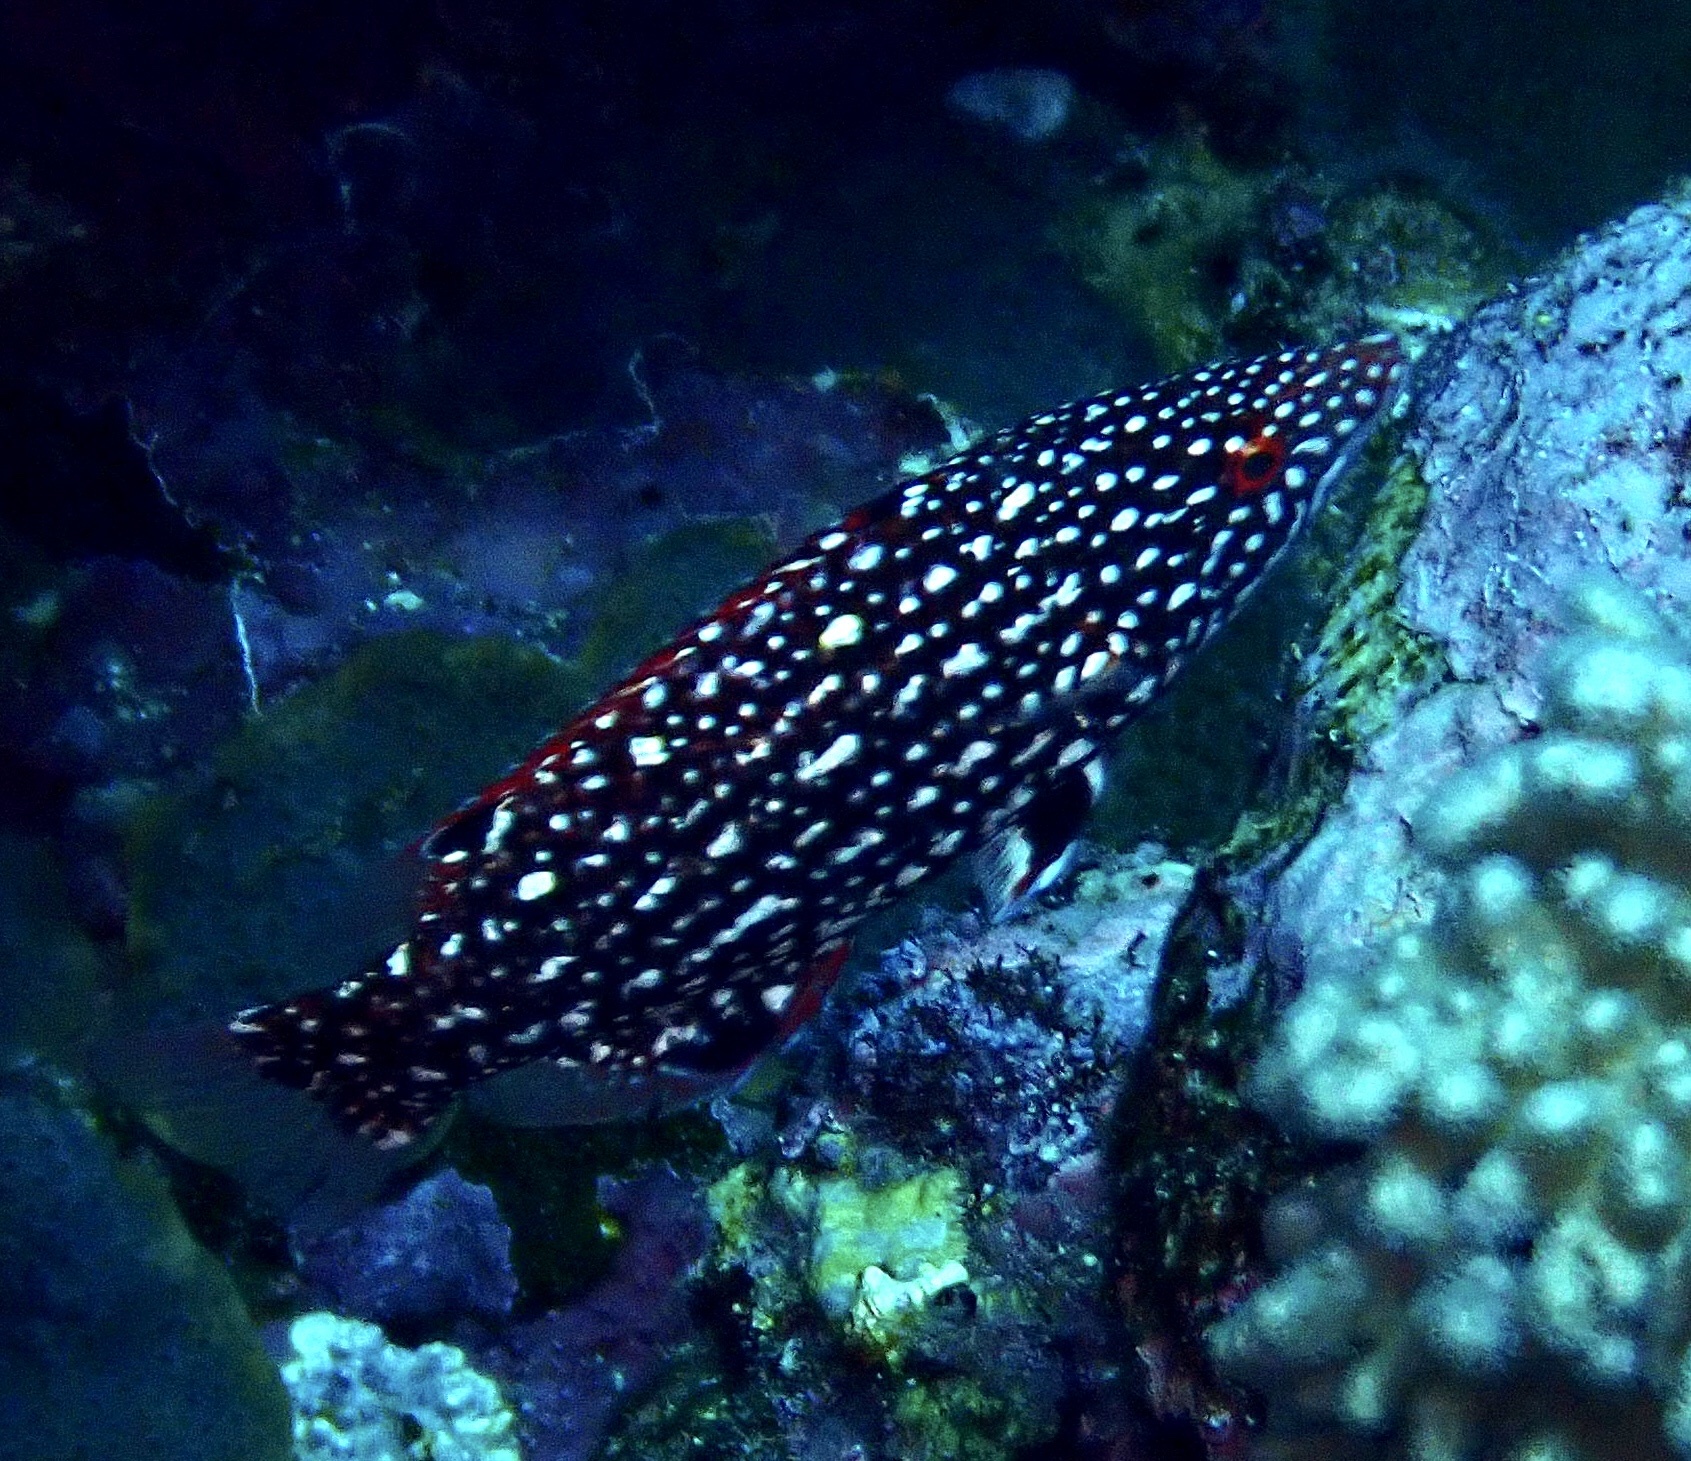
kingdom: Animalia
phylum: Chordata
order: Perciformes
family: Labridae
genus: Bodianus
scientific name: Bodianus diana
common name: Diana's hogfish
